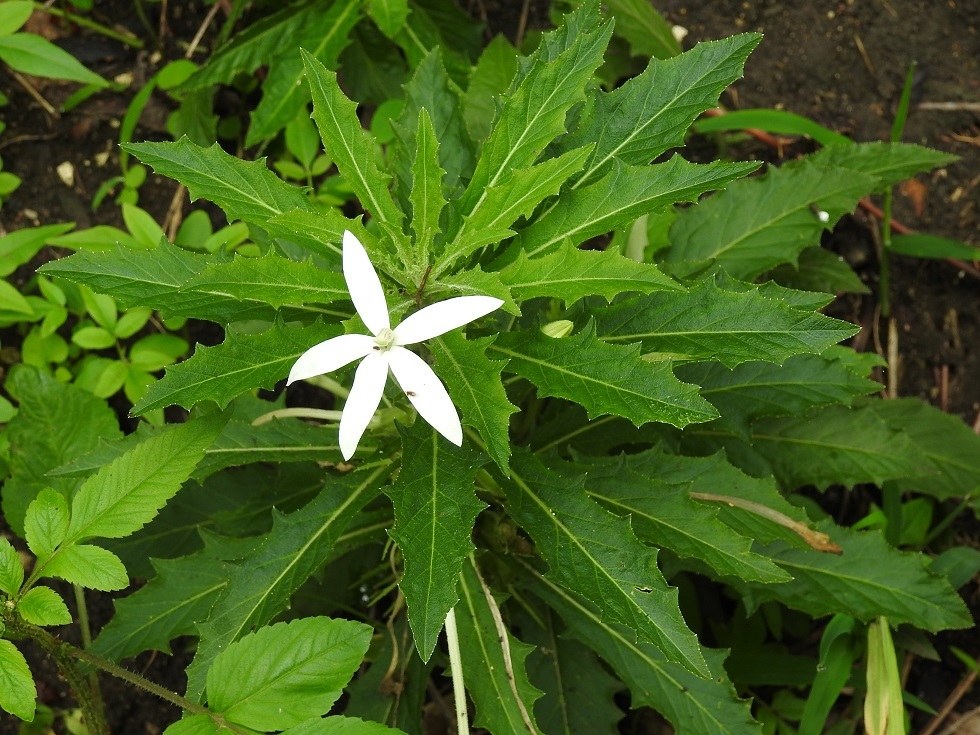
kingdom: Plantae
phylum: Tracheophyta
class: Magnoliopsida
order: Asterales
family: Campanulaceae
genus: Hippobroma
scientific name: Hippobroma longiflora
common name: Madamfate
